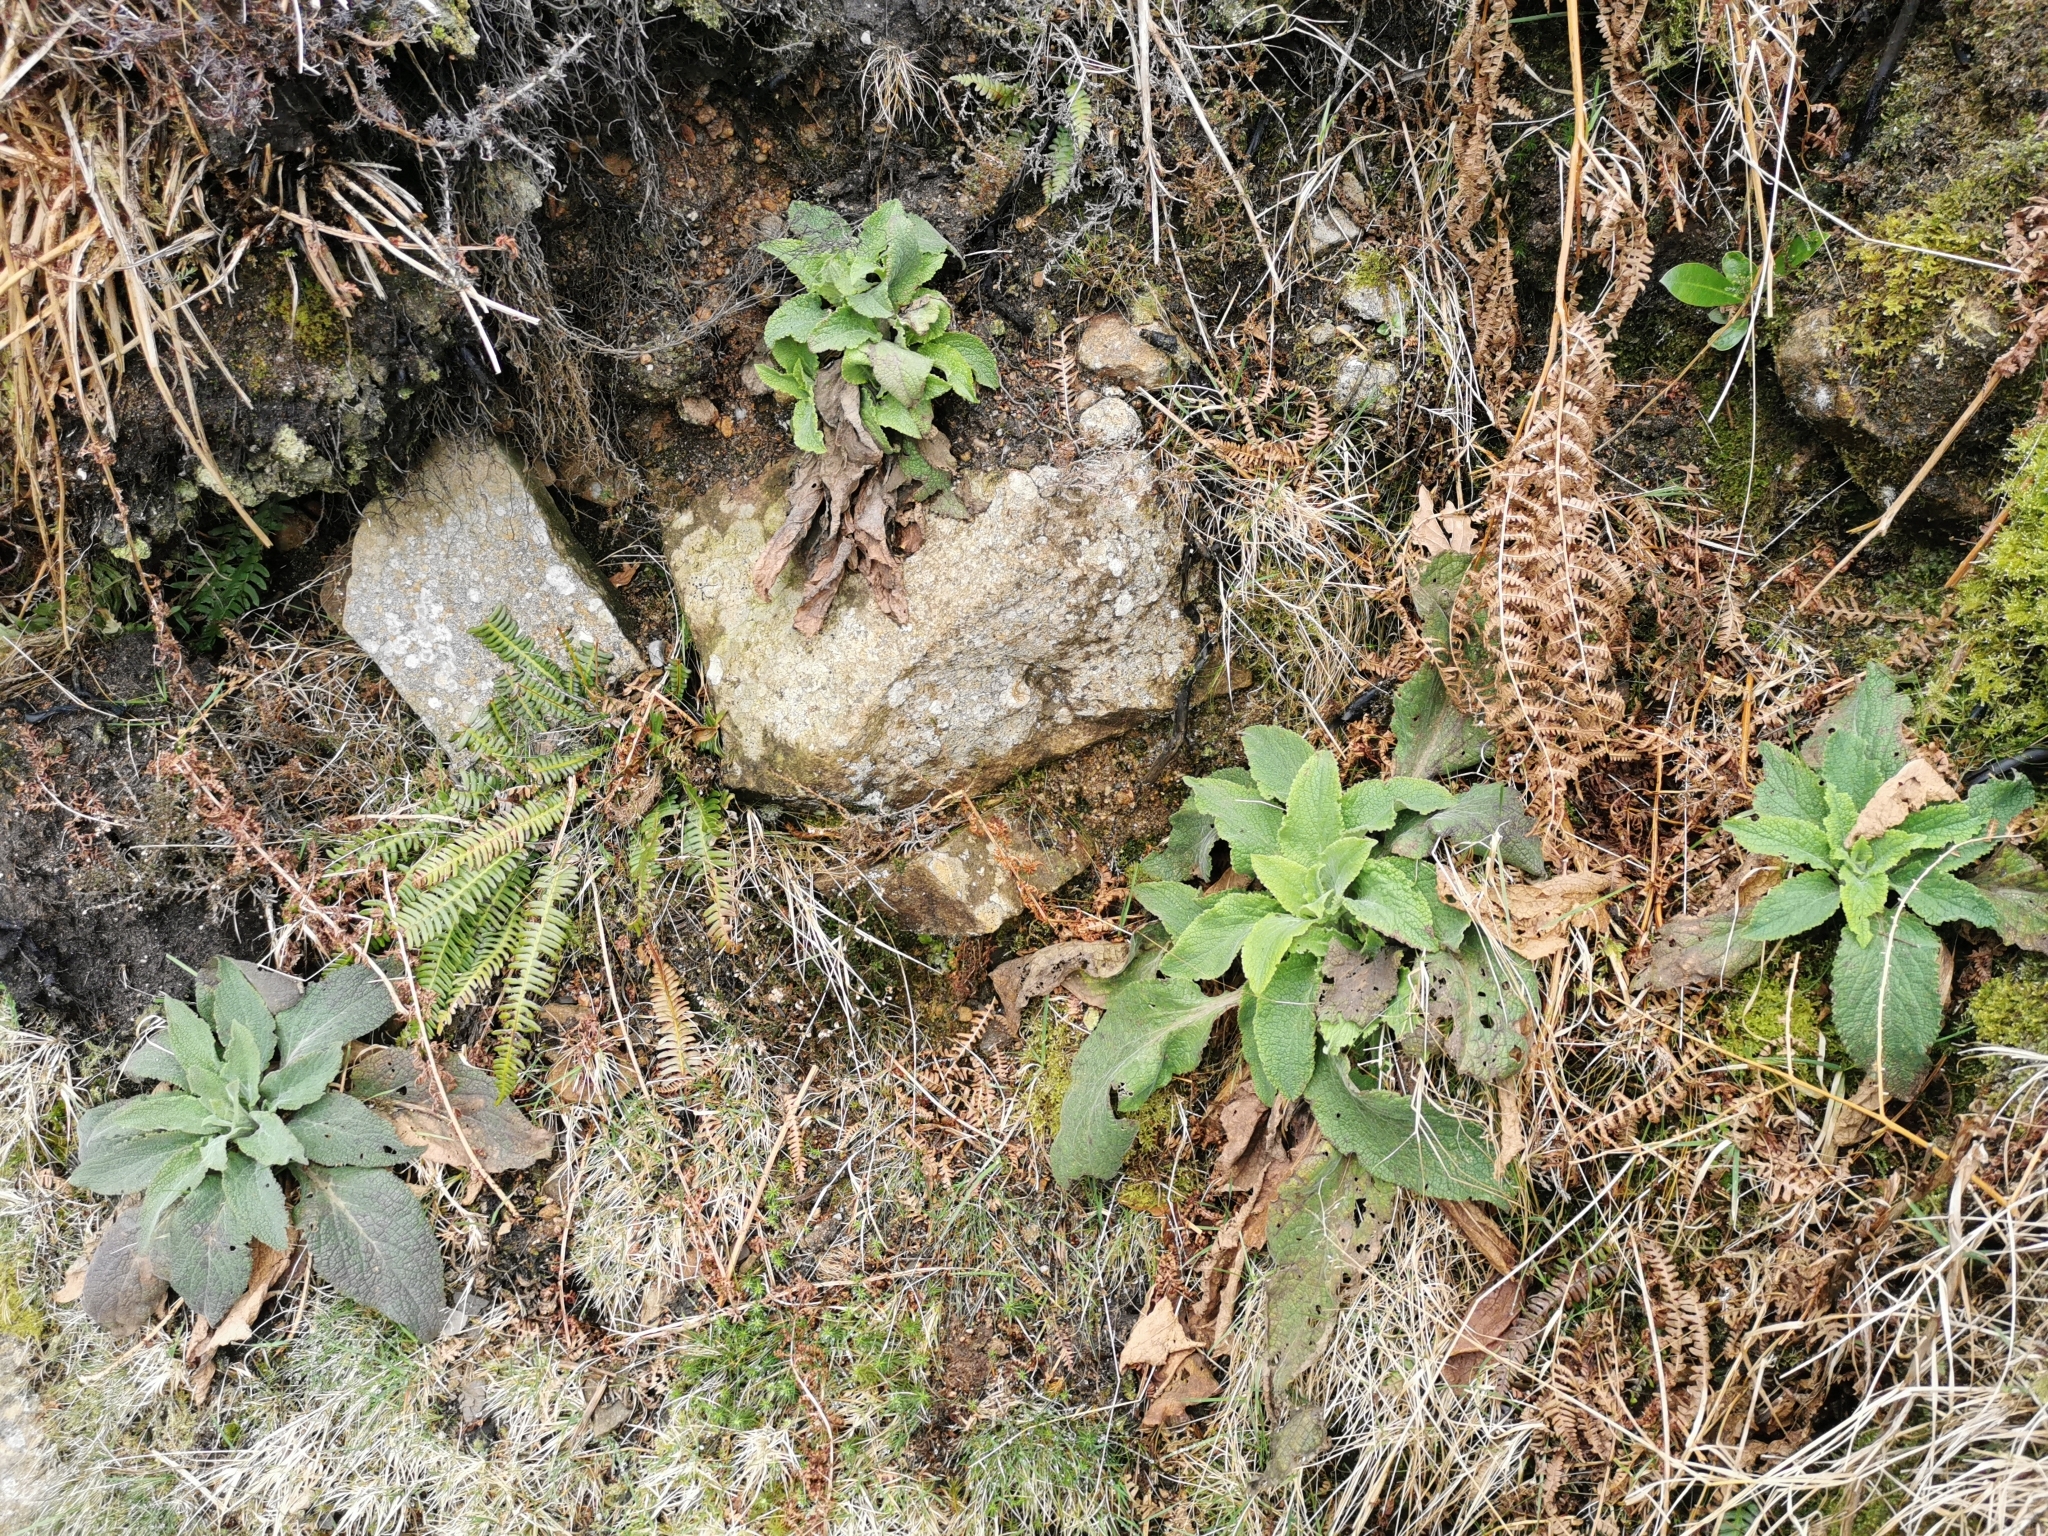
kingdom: Plantae
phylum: Tracheophyta
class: Magnoliopsida
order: Lamiales
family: Plantaginaceae
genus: Digitalis
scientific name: Digitalis purpurea
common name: Foxglove
